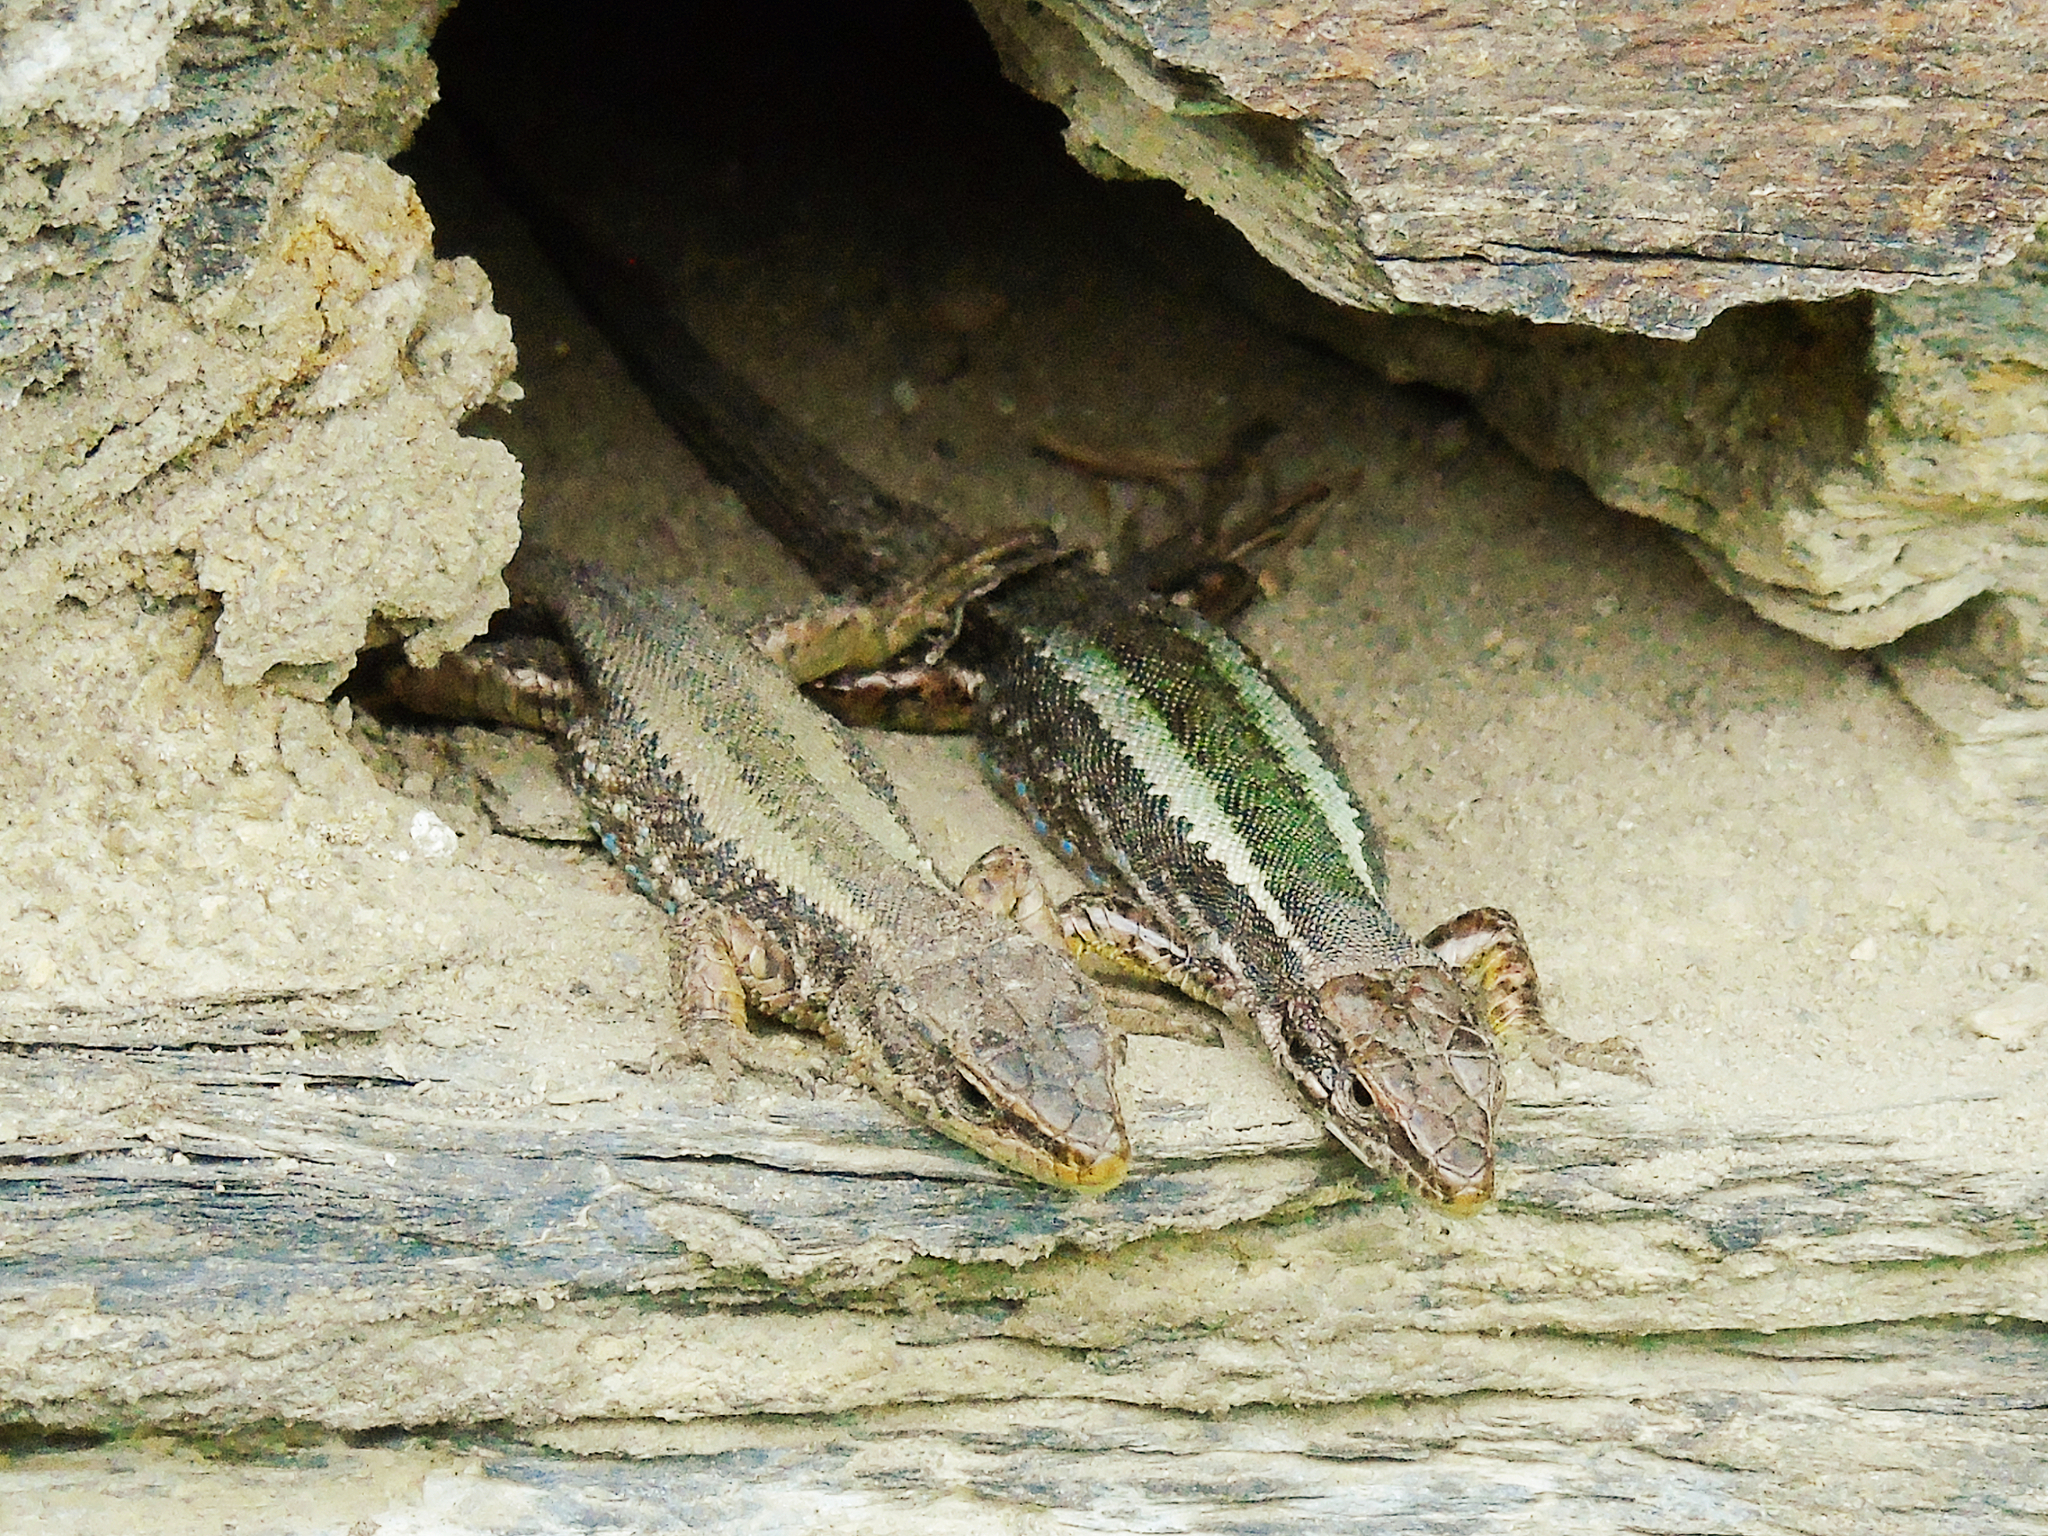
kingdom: Animalia
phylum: Chordata
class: Squamata
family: Lacertidae
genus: Darevskia
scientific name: Darevskia caucasica
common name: Caucasian llzard
